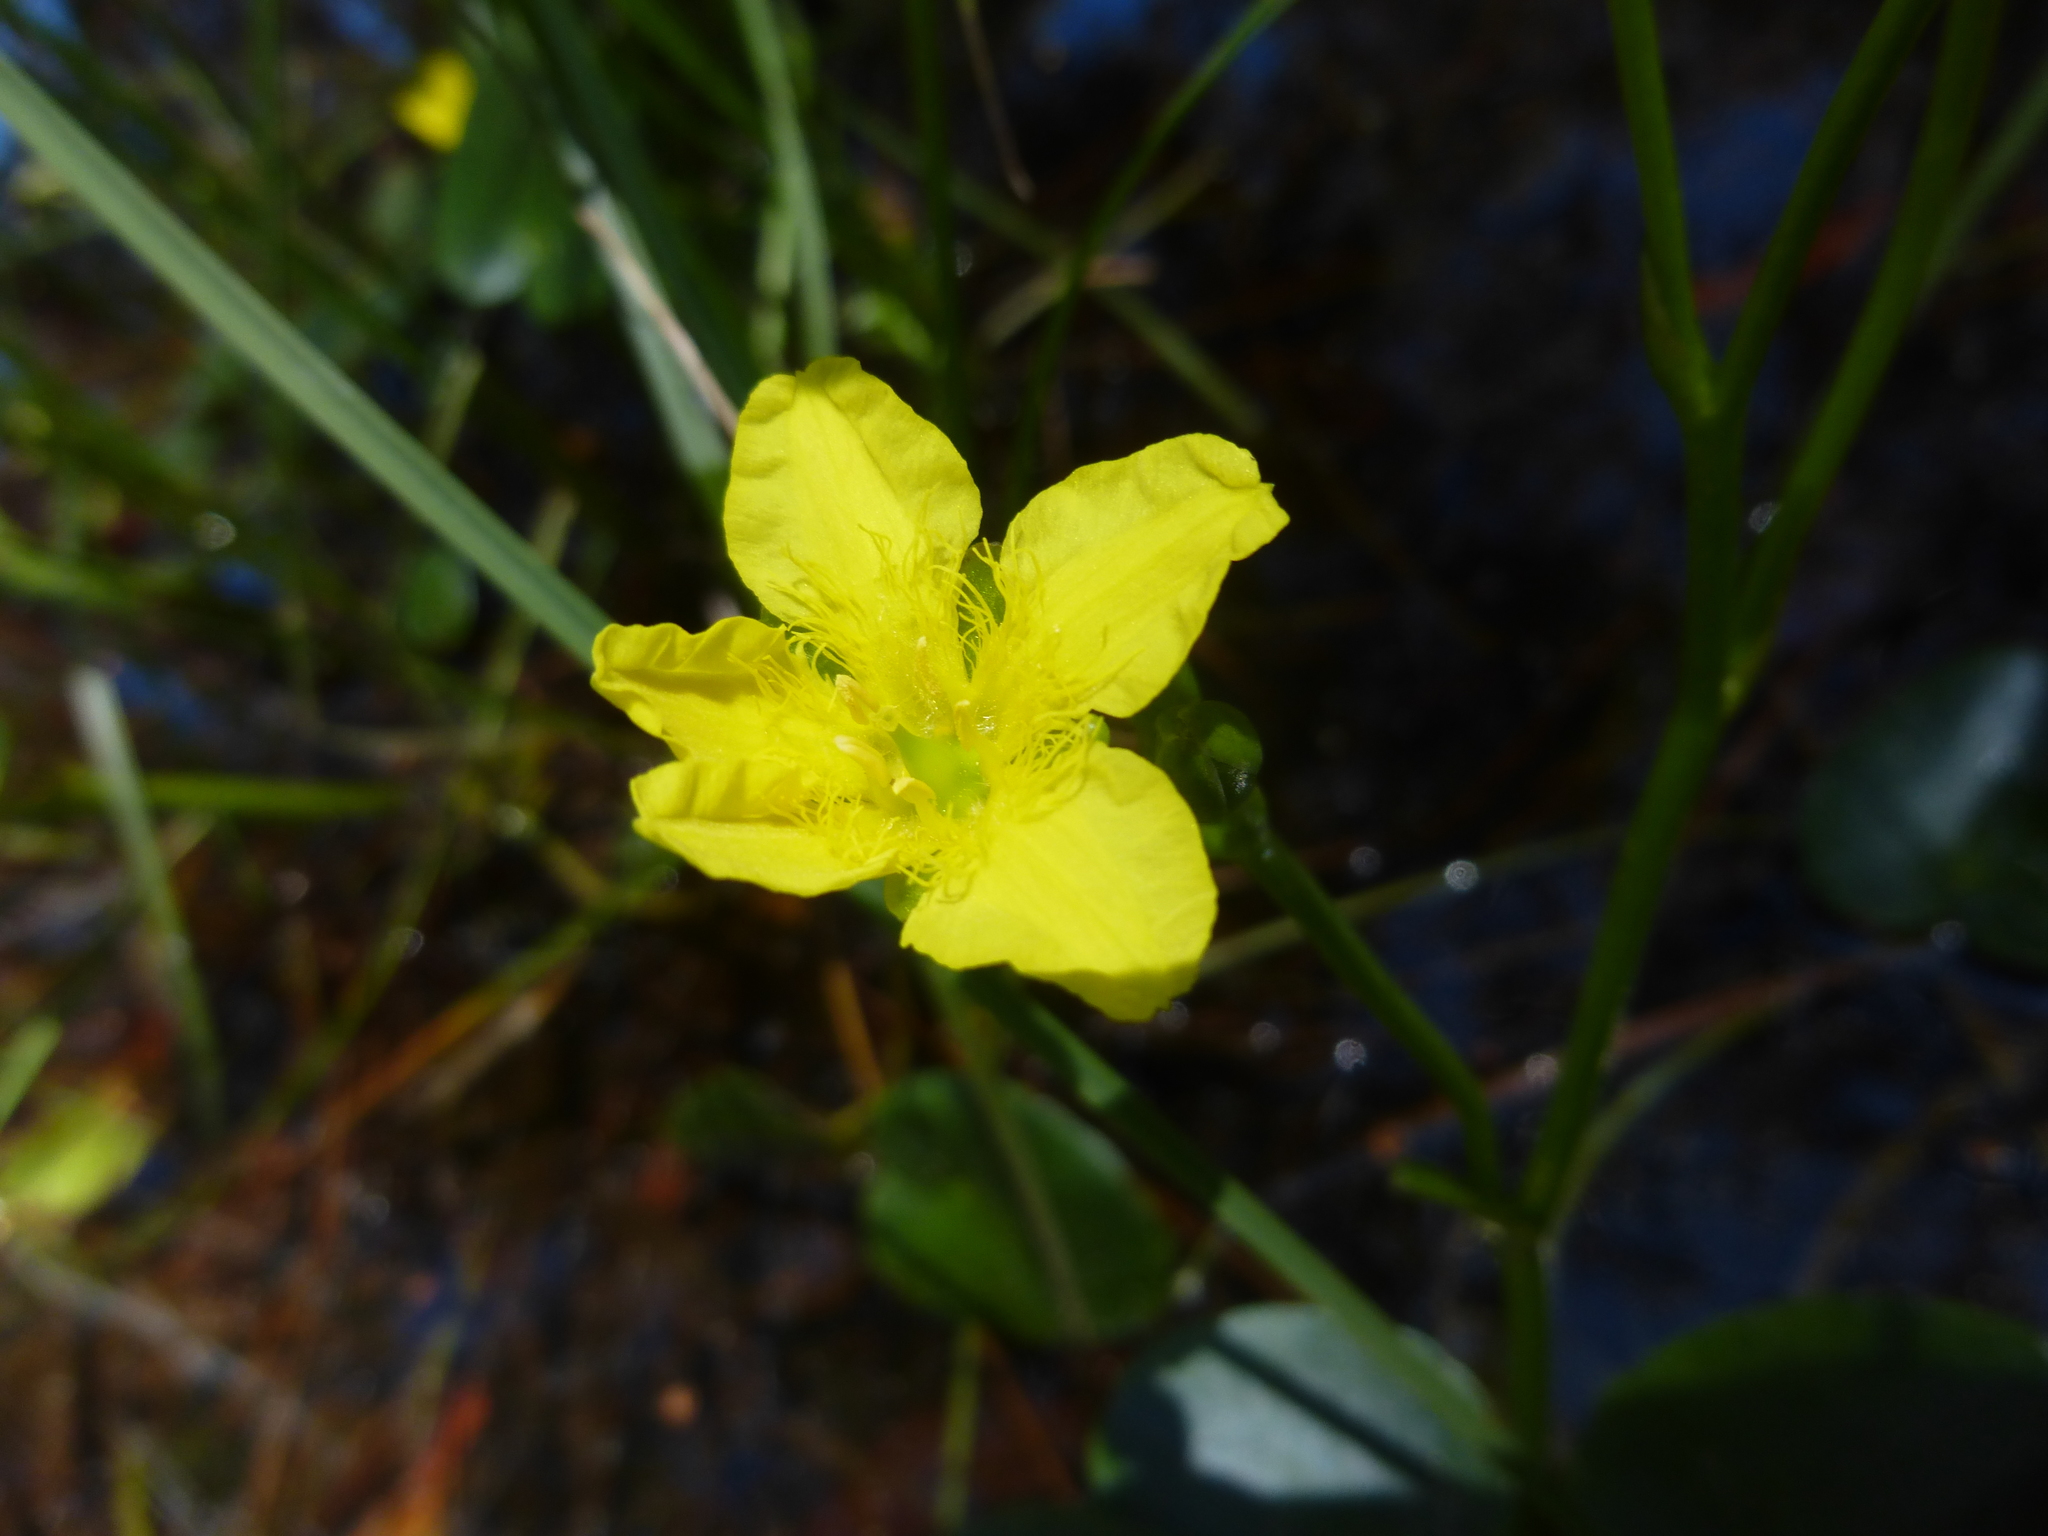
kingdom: Plantae
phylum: Tracheophyta
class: Magnoliopsida
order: Asterales
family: Menyanthaceae
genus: Ornduffia
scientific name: Ornduffia reniformis
